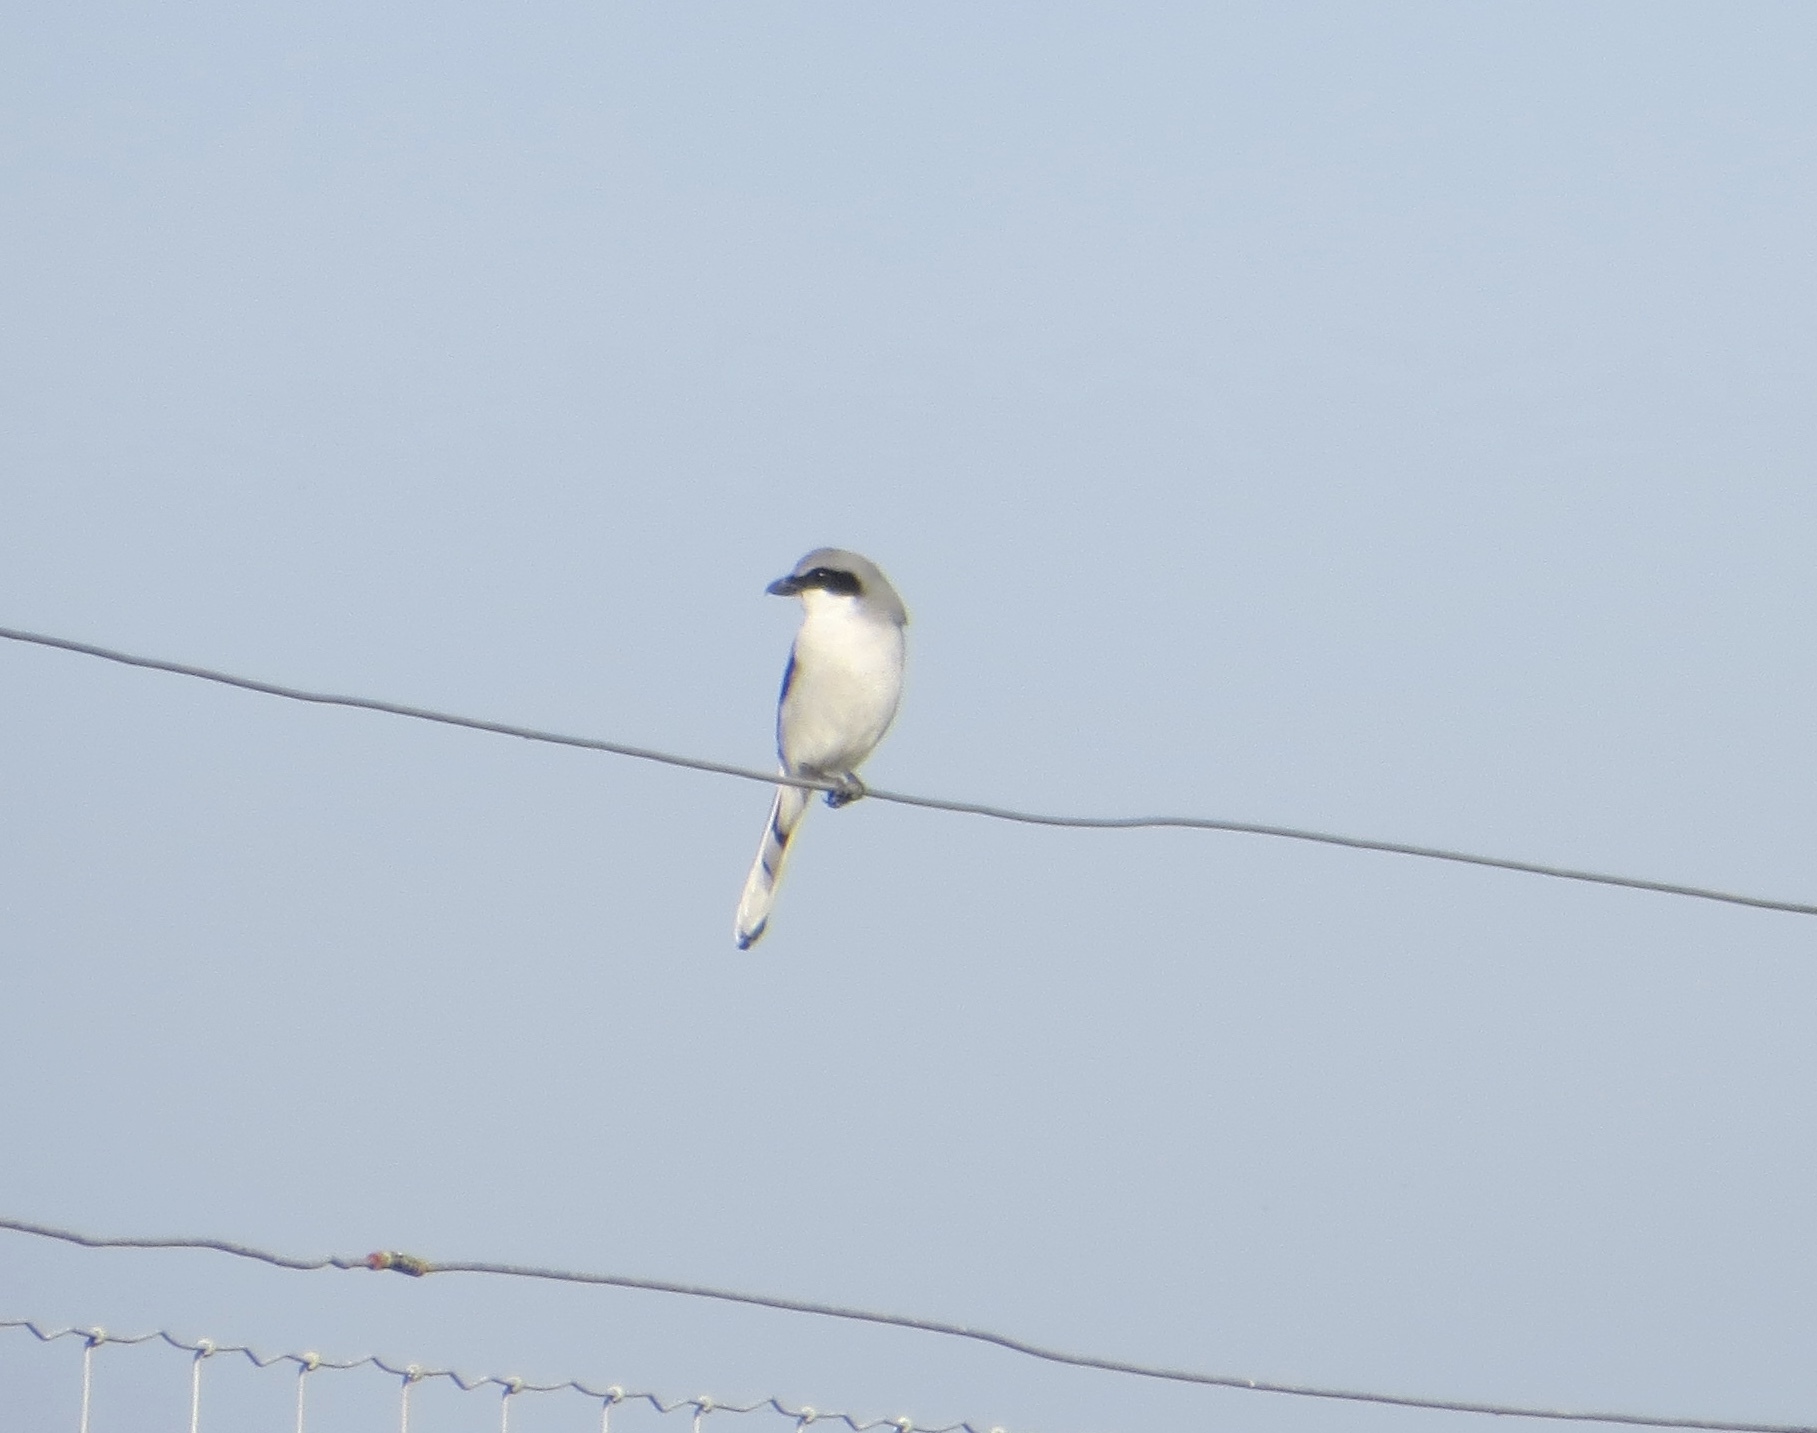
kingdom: Animalia
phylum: Chordata
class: Aves
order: Passeriformes
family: Laniidae
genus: Lanius
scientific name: Lanius ludovicianus
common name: Loggerhead shrike
